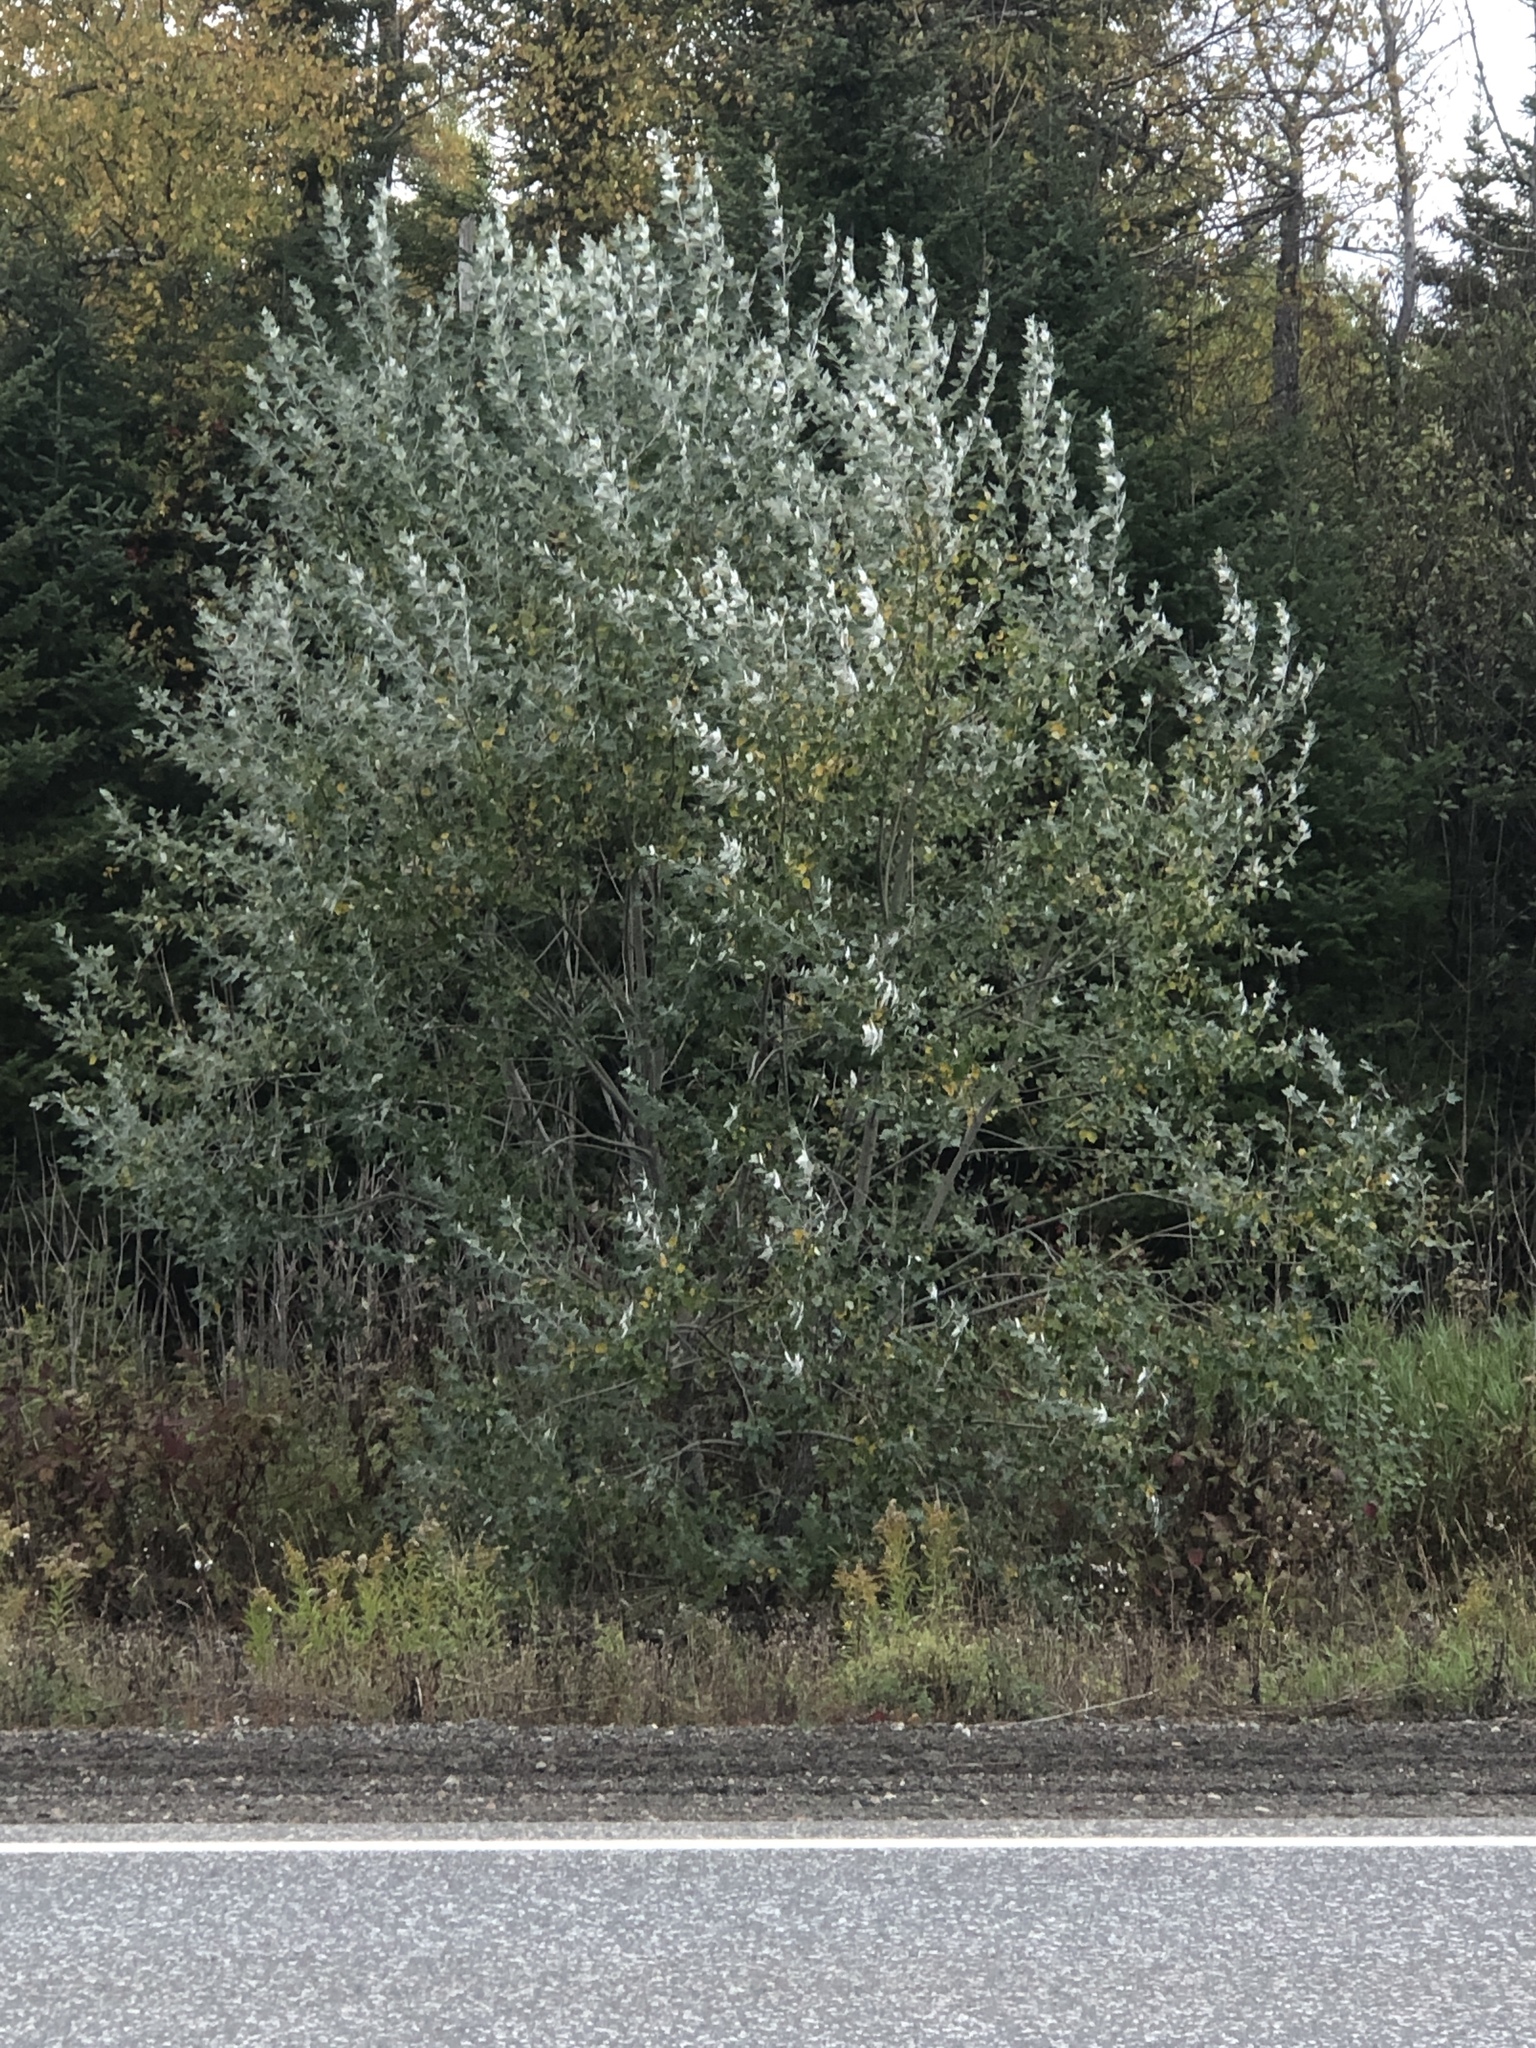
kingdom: Plantae
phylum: Tracheophyta
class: Magnoliopsida
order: Malpighiales
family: Salicaceae
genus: Populus
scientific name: Populus alba
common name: White poplar
